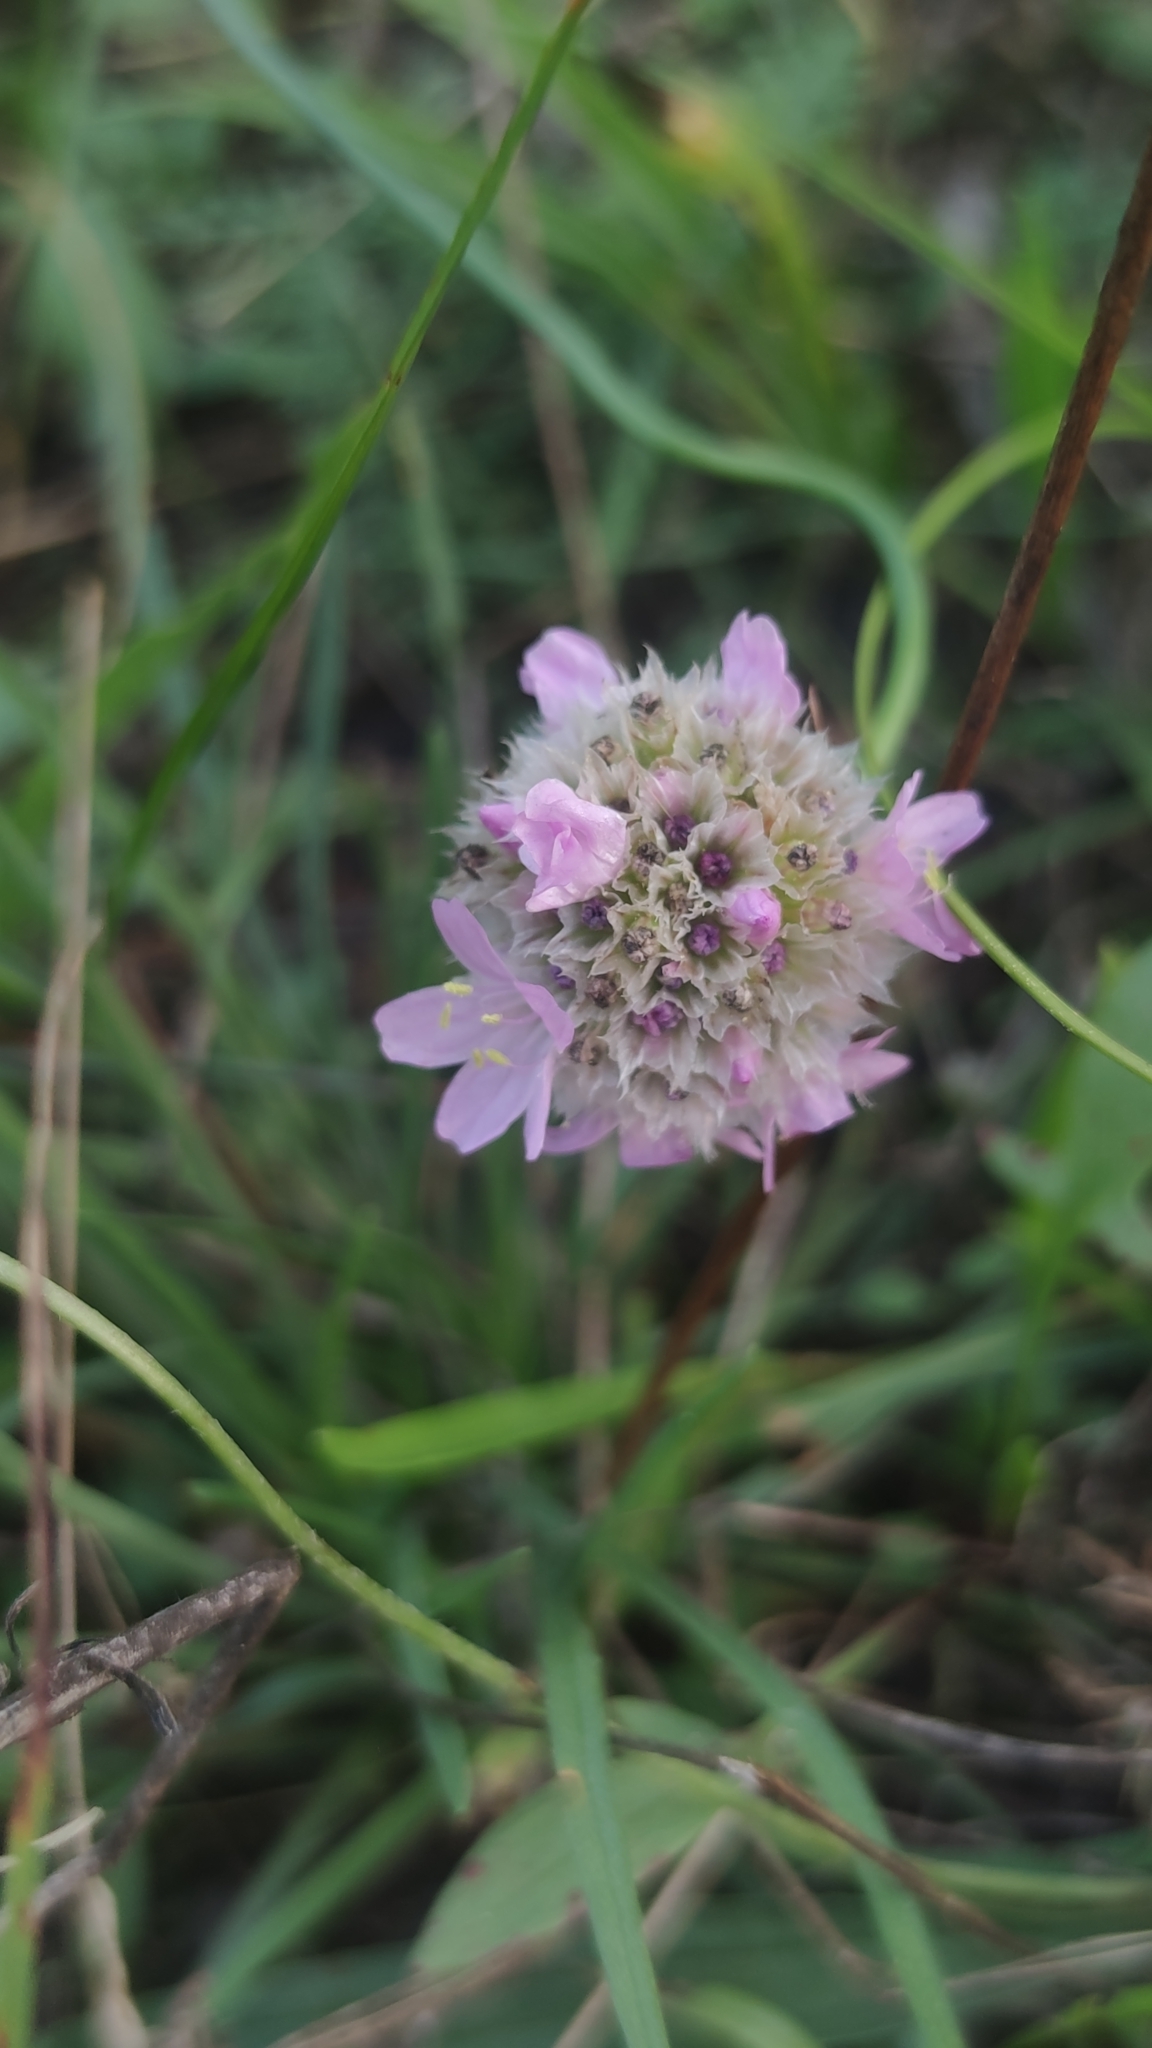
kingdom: Plantae
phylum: Tracheophyta
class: Magnoliopsida
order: Caryophyllales
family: Plumbaginaceae
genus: Armeria
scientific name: Armeria maritima
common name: Thrift
